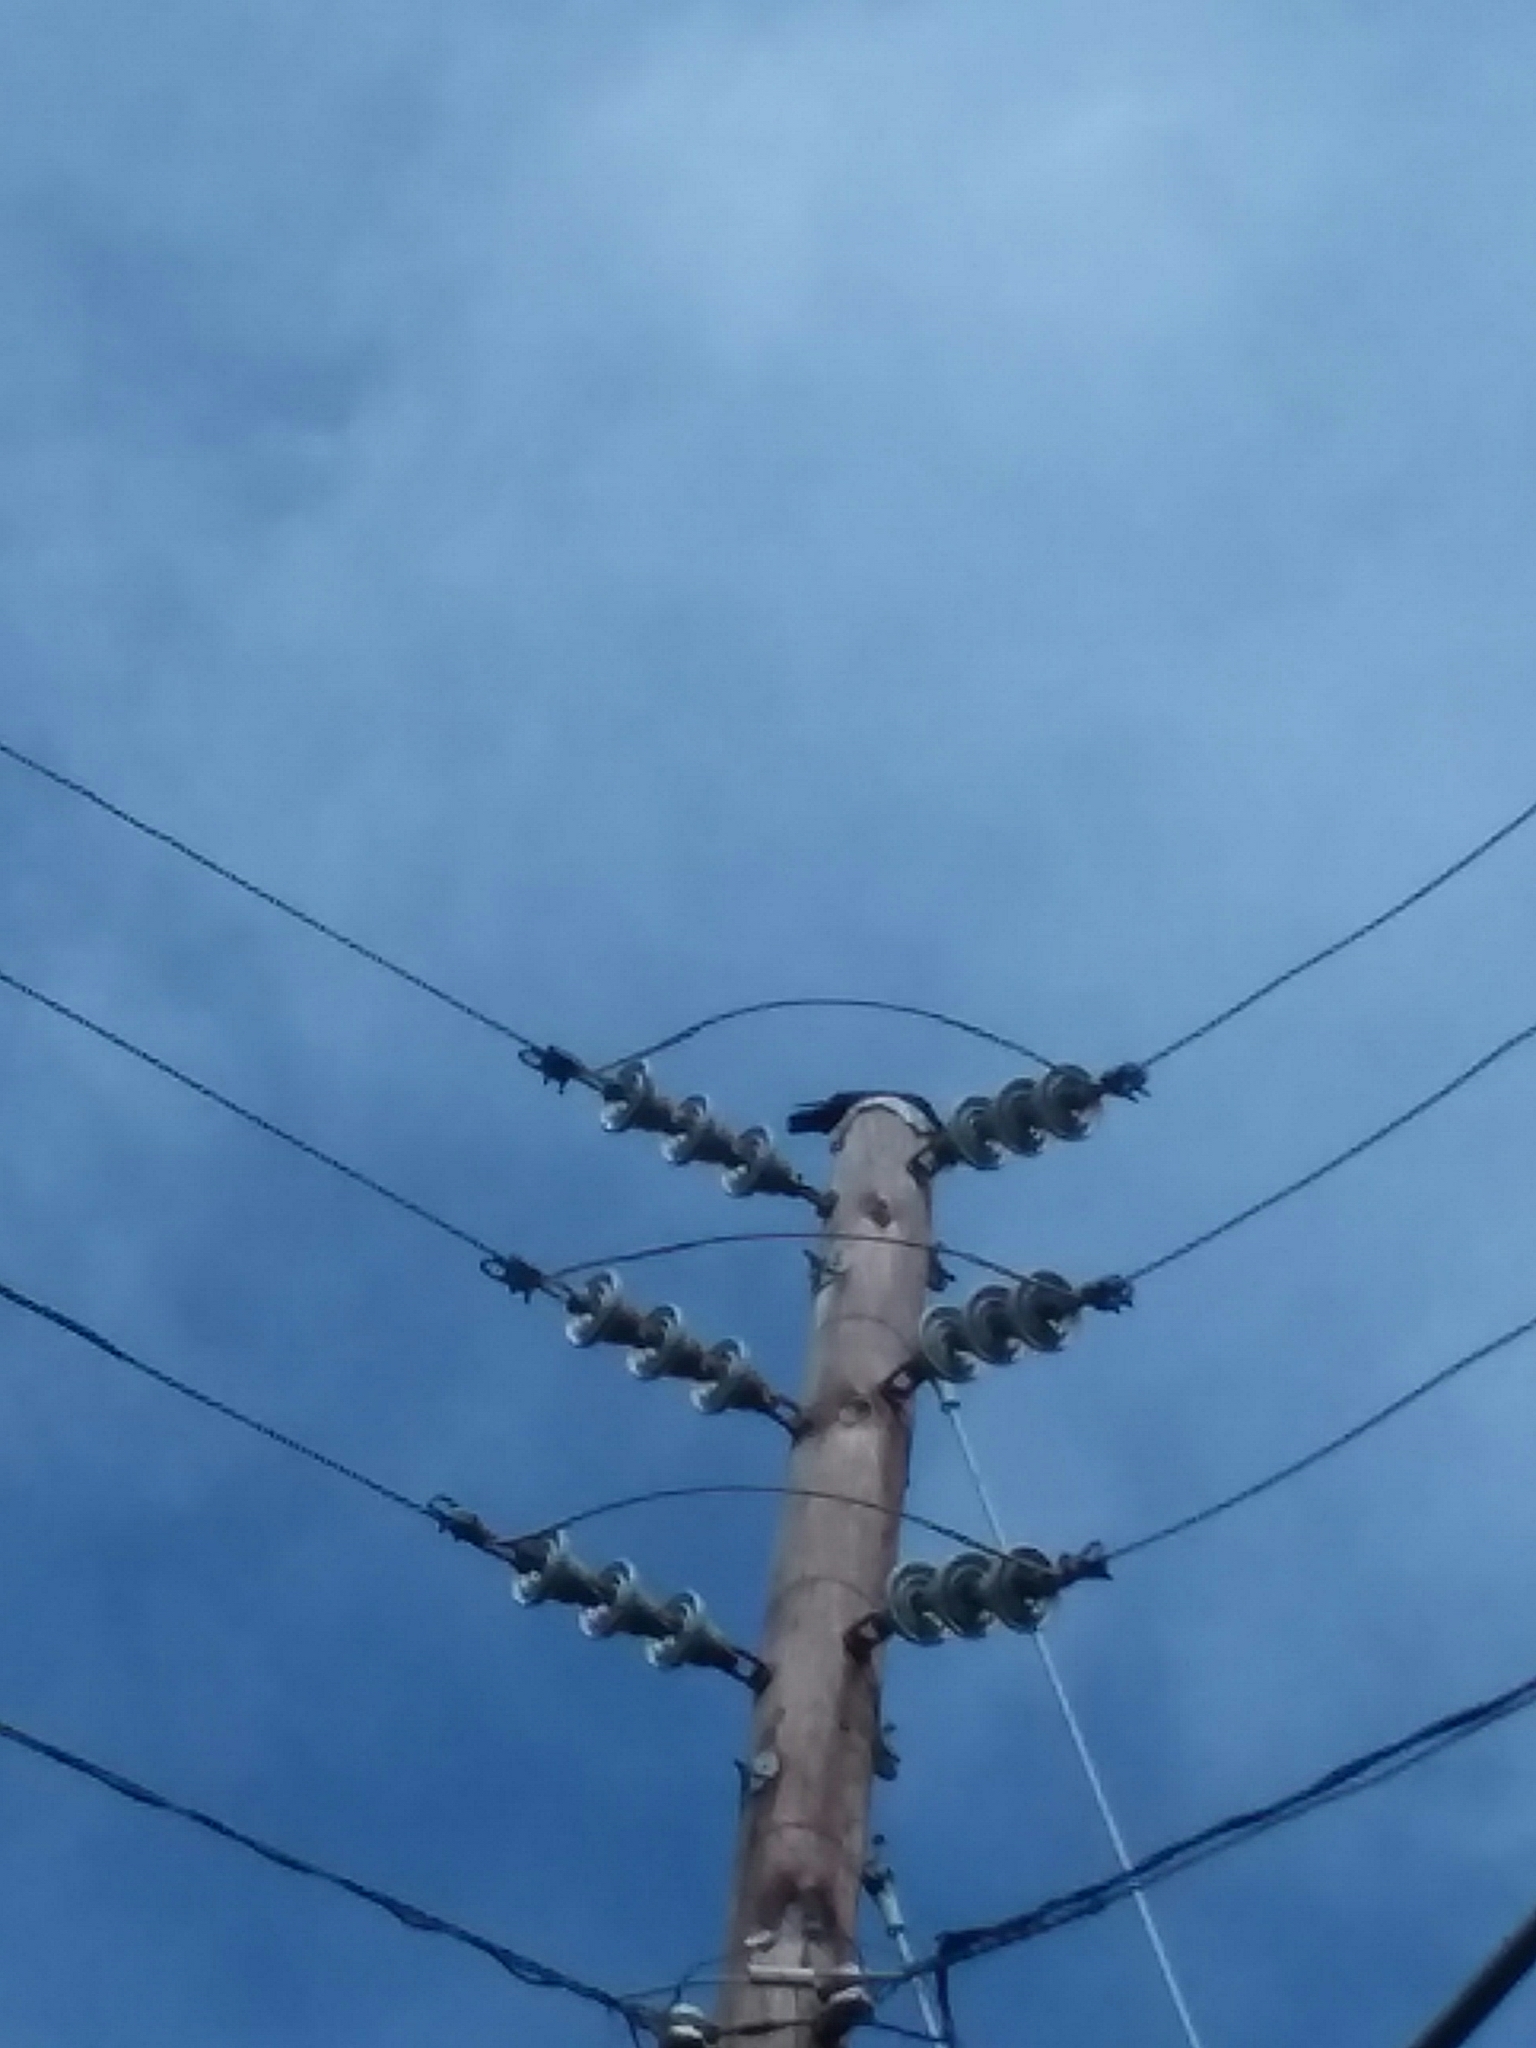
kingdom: Animalia
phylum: Chordata
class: Aves
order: Passeriformes
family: Corvidae
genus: Corvus
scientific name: Corvus brachyrhynchos
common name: American crow
